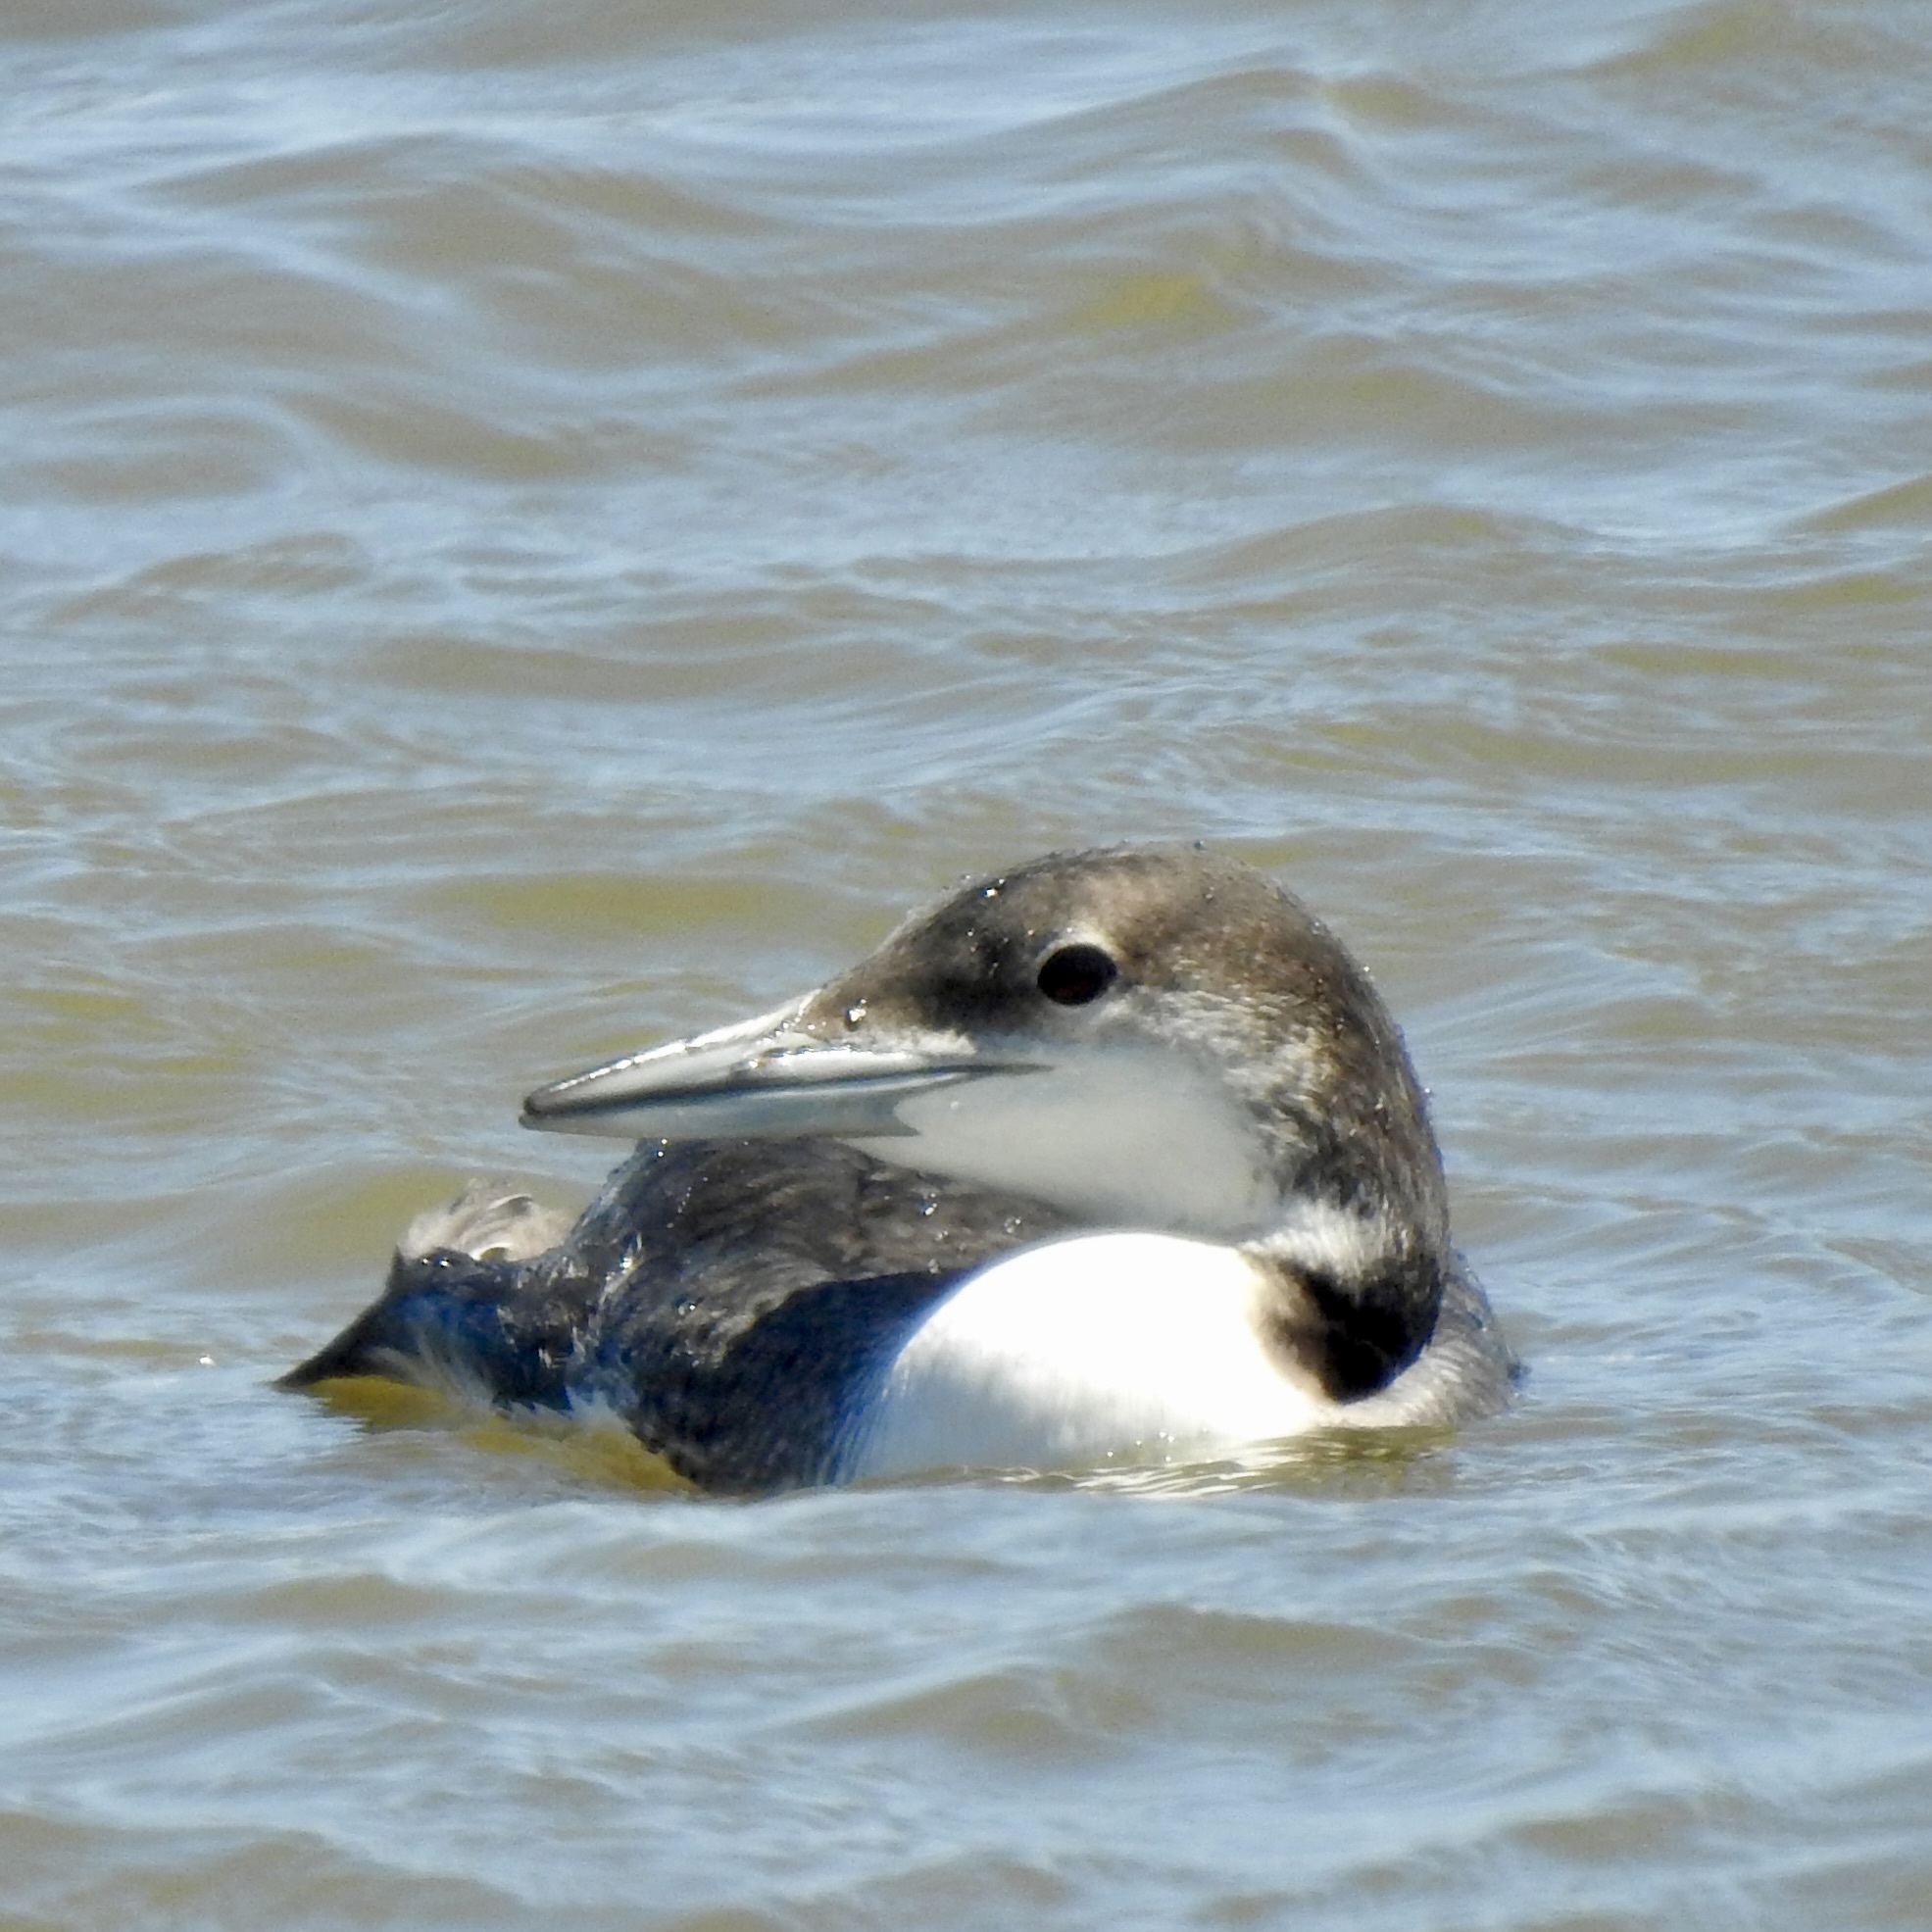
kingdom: Animalia
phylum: Chordata
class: Aves
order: Gaviiformes
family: Gaviidae
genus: Gavia
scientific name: Gavia immer
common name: Common loon
